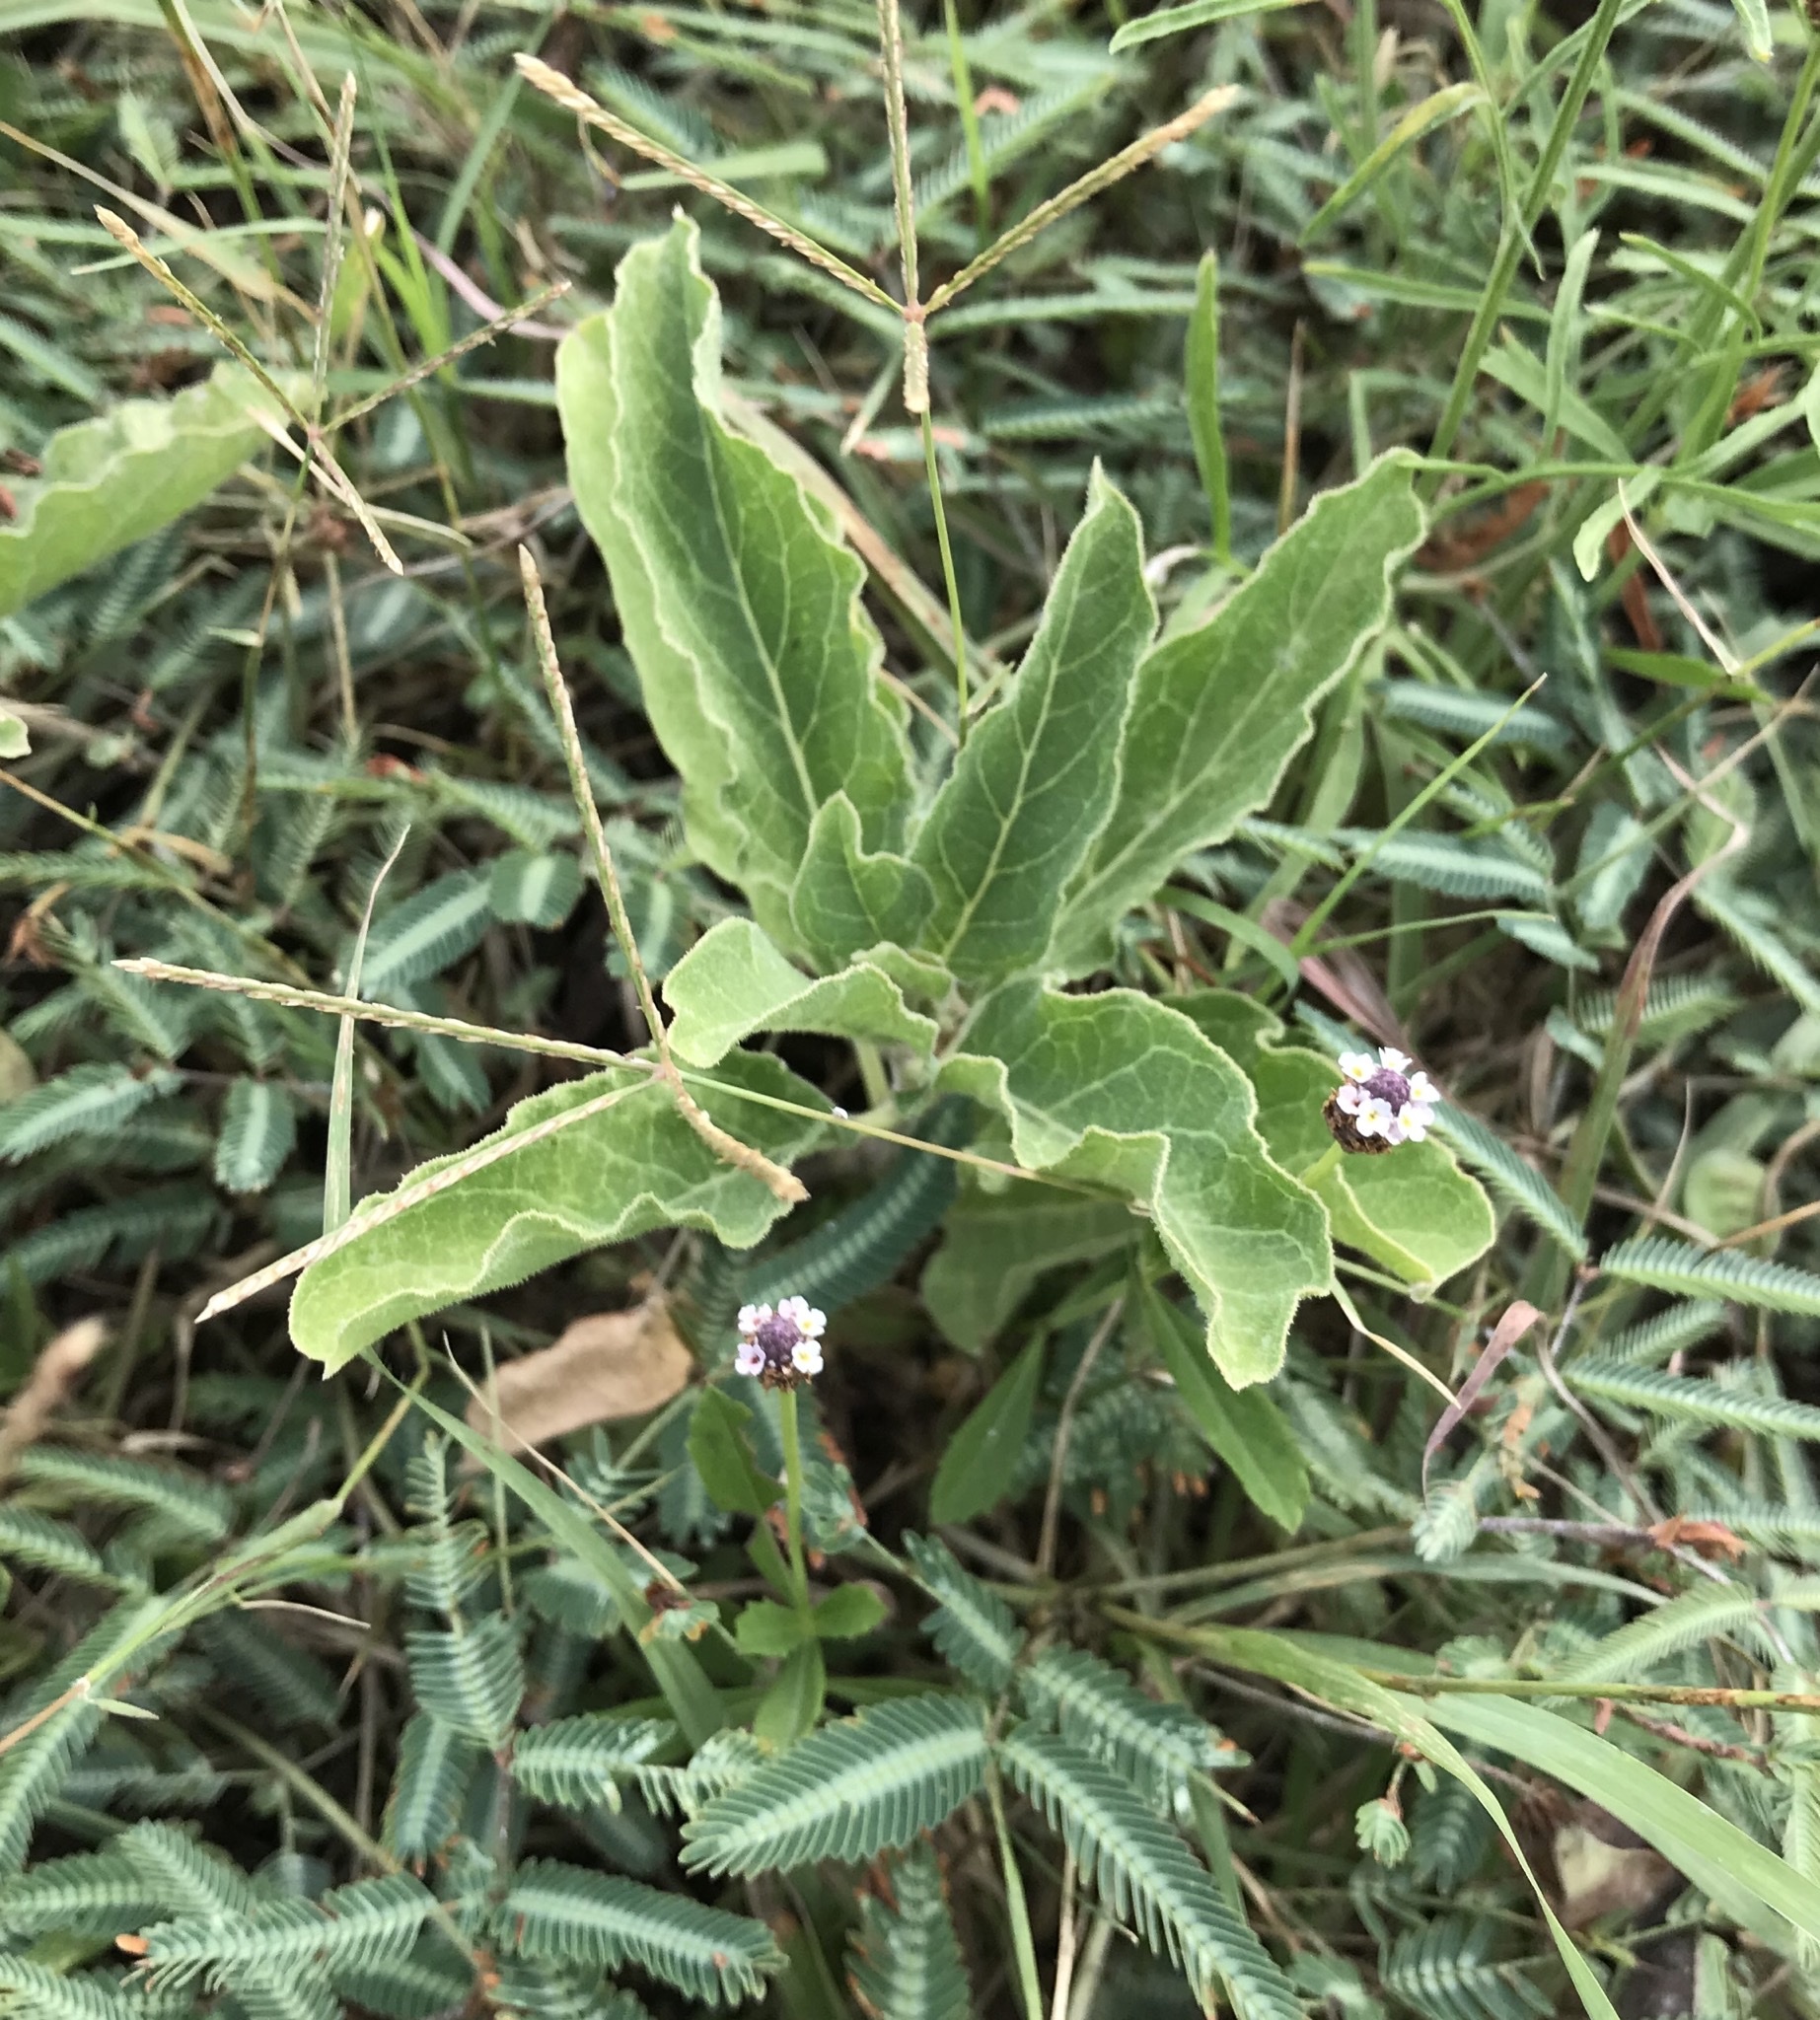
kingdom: Plantae
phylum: Tracheophyta
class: Magnoliopsida
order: Gentianales
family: Apocynaceae
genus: Asclepias
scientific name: Asclepias oenotheroides
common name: Zizotes milkweed
